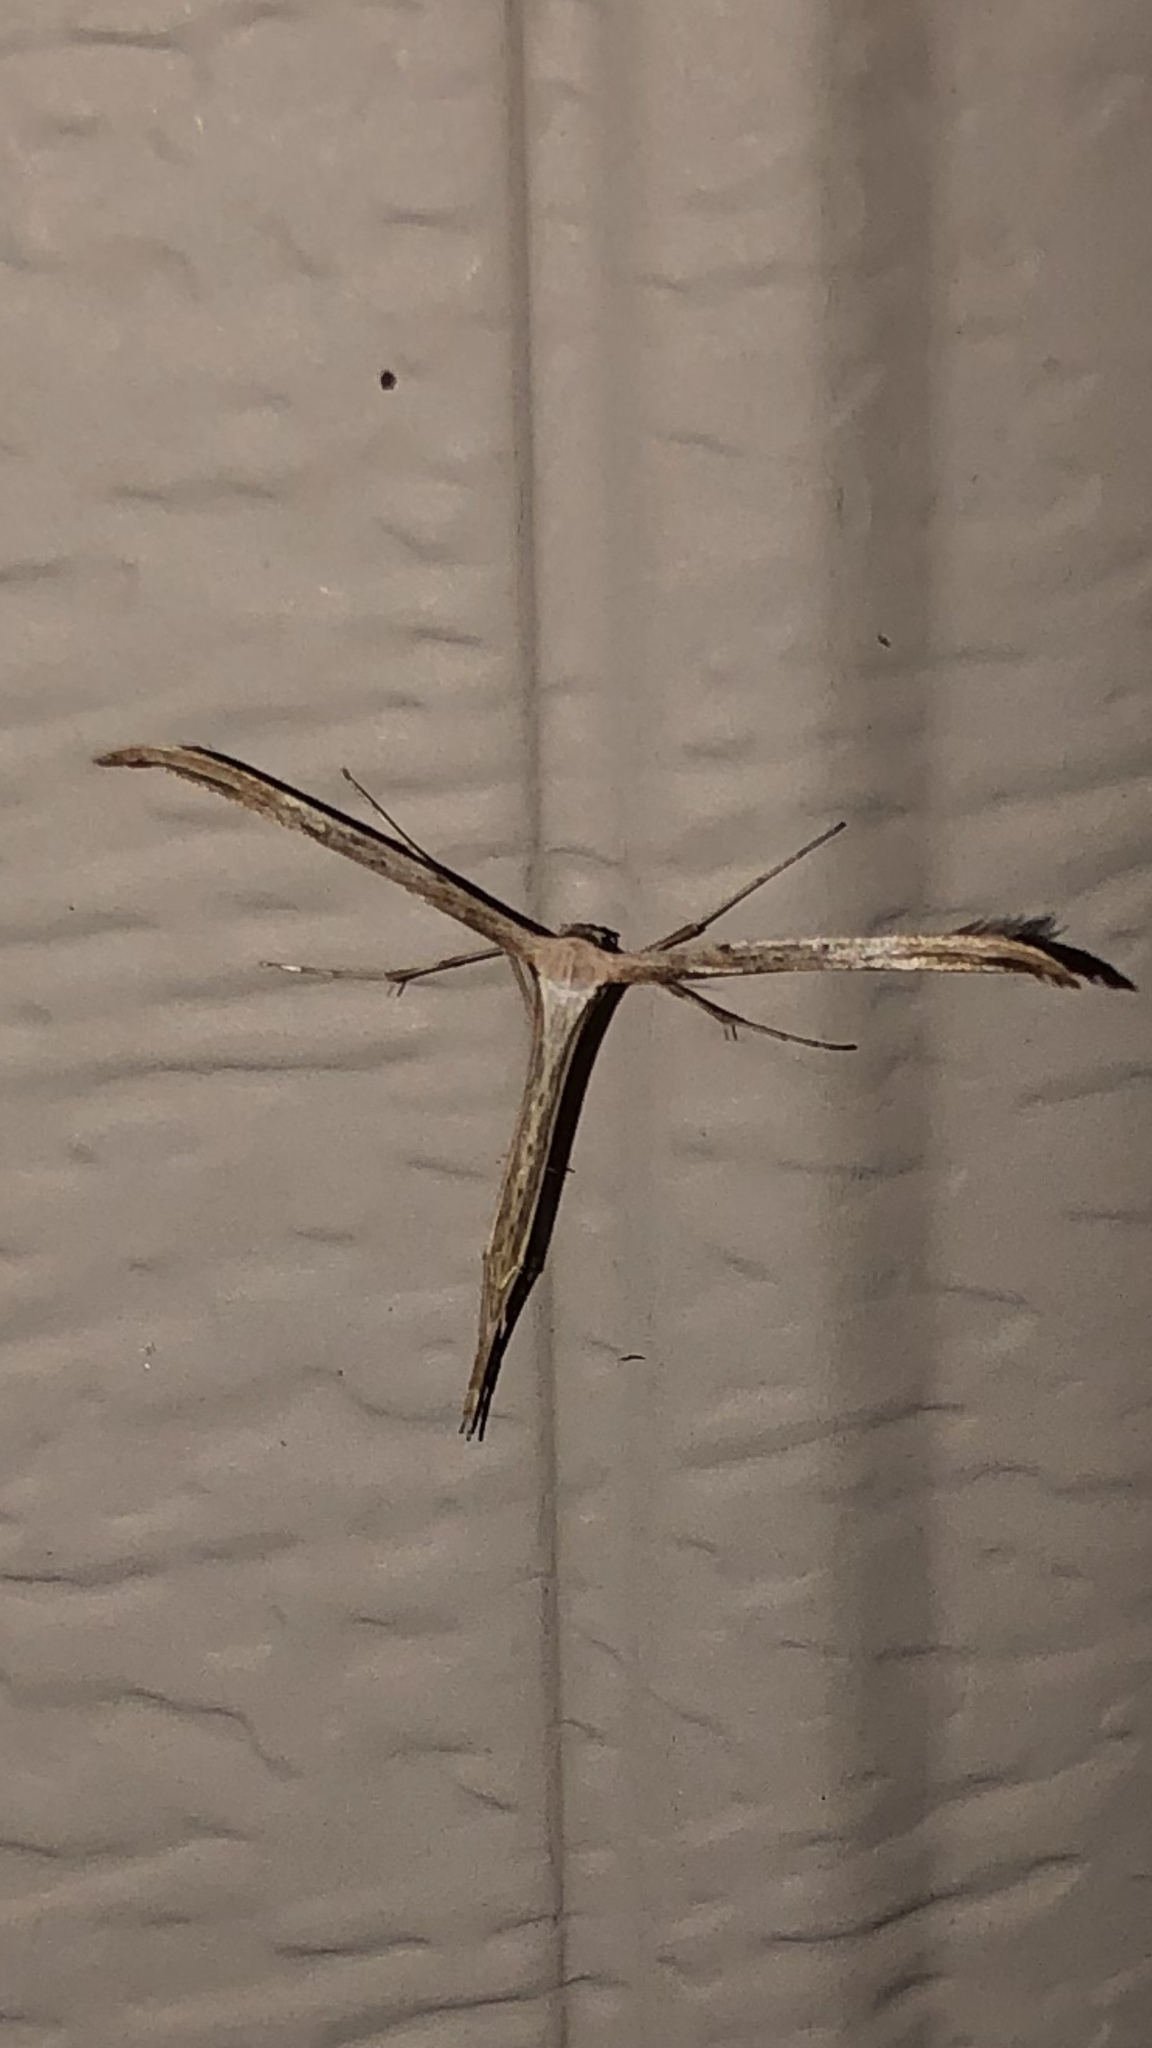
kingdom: Animalia
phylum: Arthropoda
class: Insecta
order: Lepidoptera
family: Pterophoridae
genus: Emmelina
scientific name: Emmelina monodactyla
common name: Common plume
